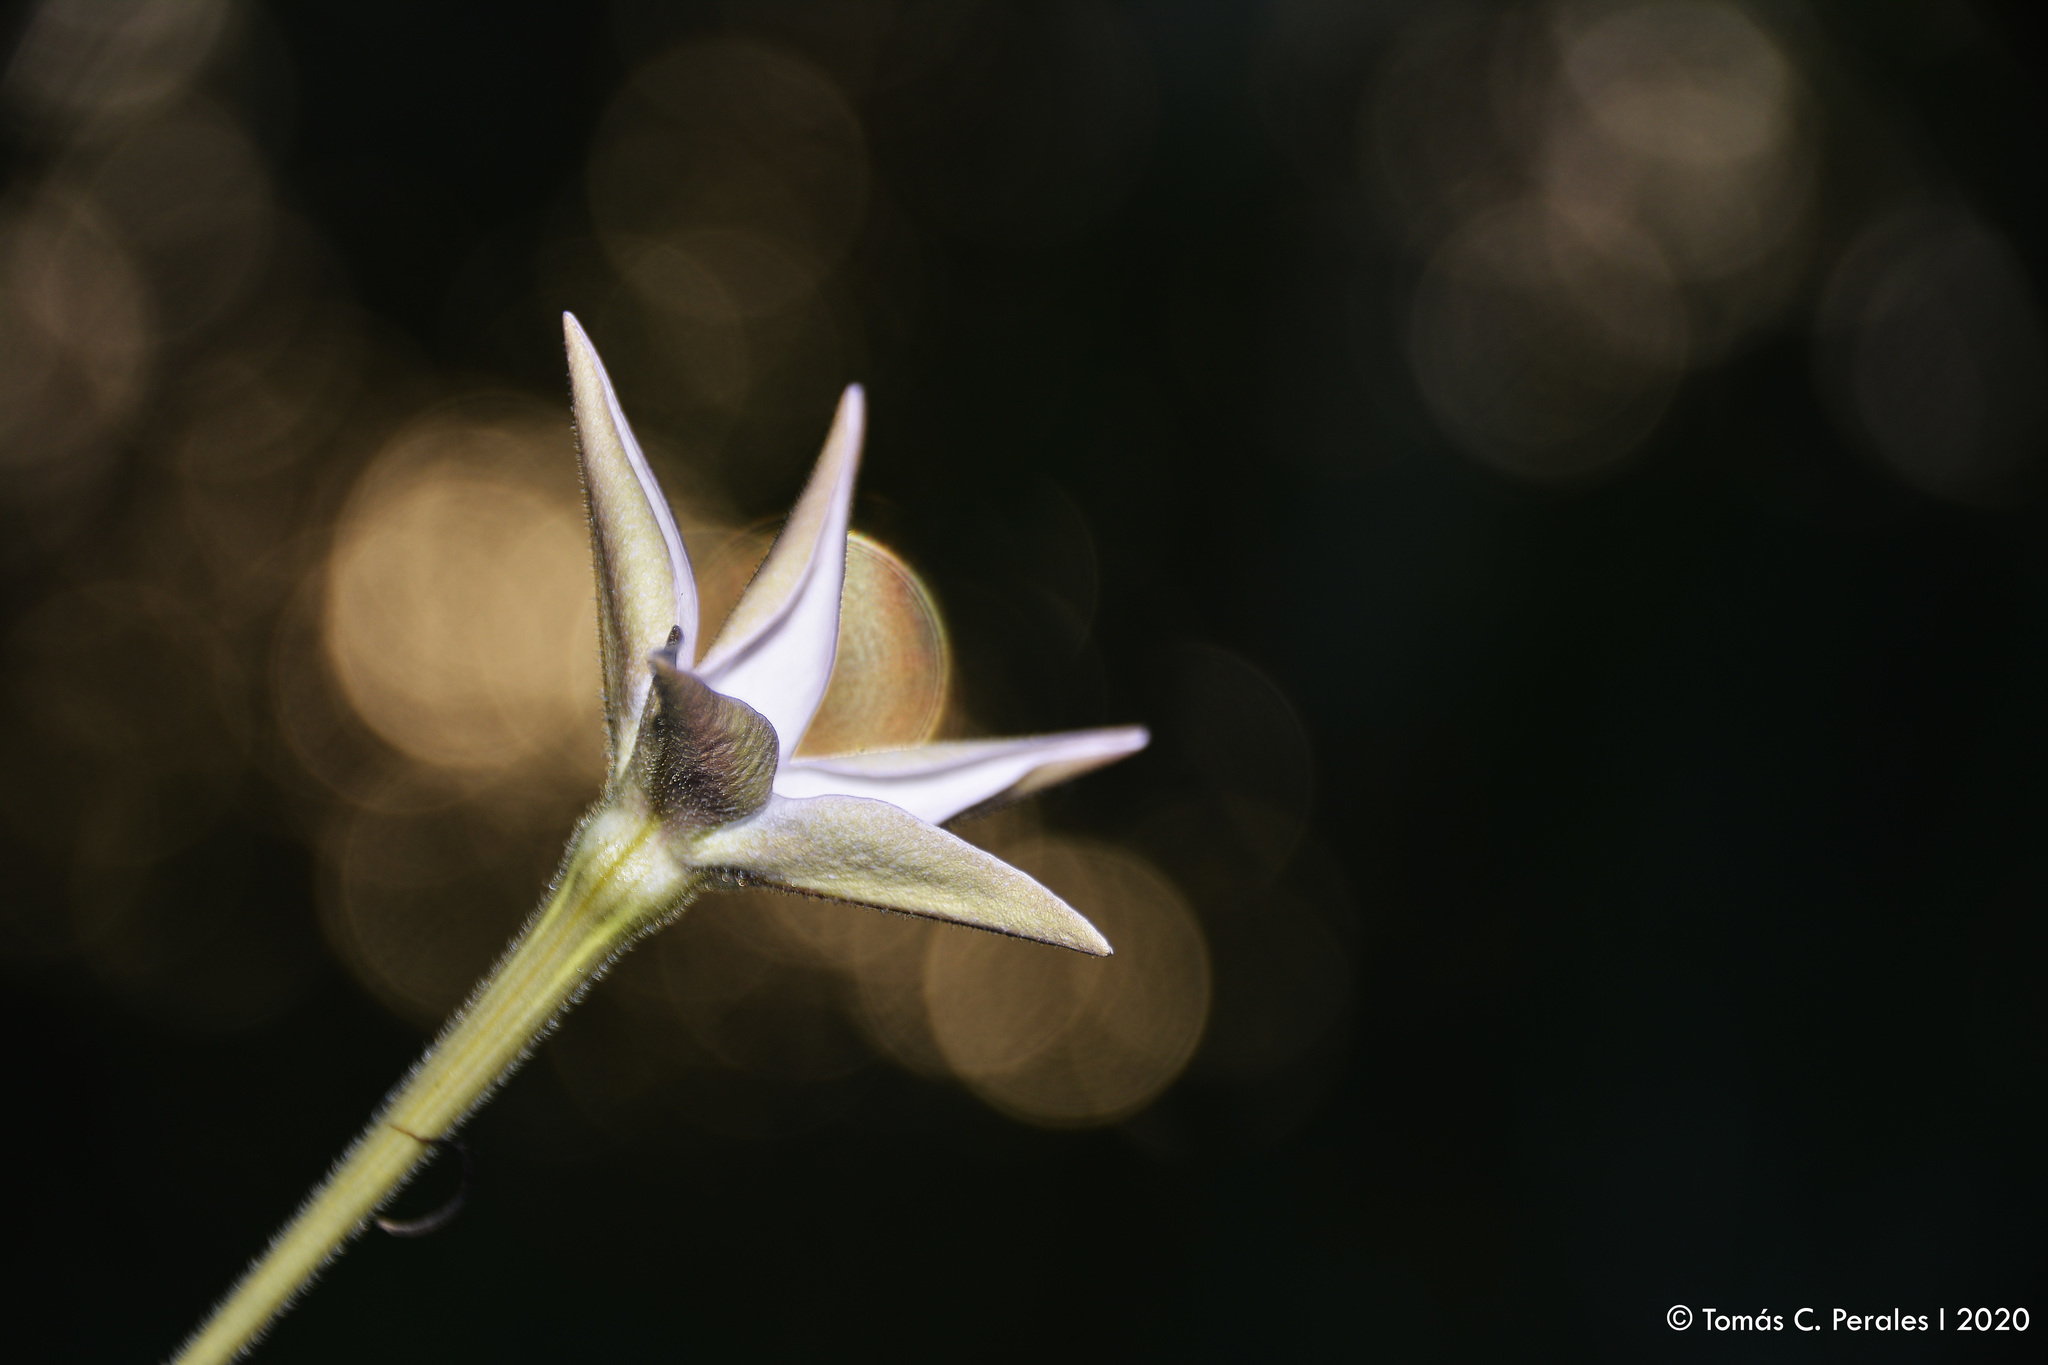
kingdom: Plantae
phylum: Tracheophyta
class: Magnoliopsida
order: Solanales
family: Solanaceae
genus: Nicotiana
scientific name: Nicotiana longiflora
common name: Long-flowered tobacco
